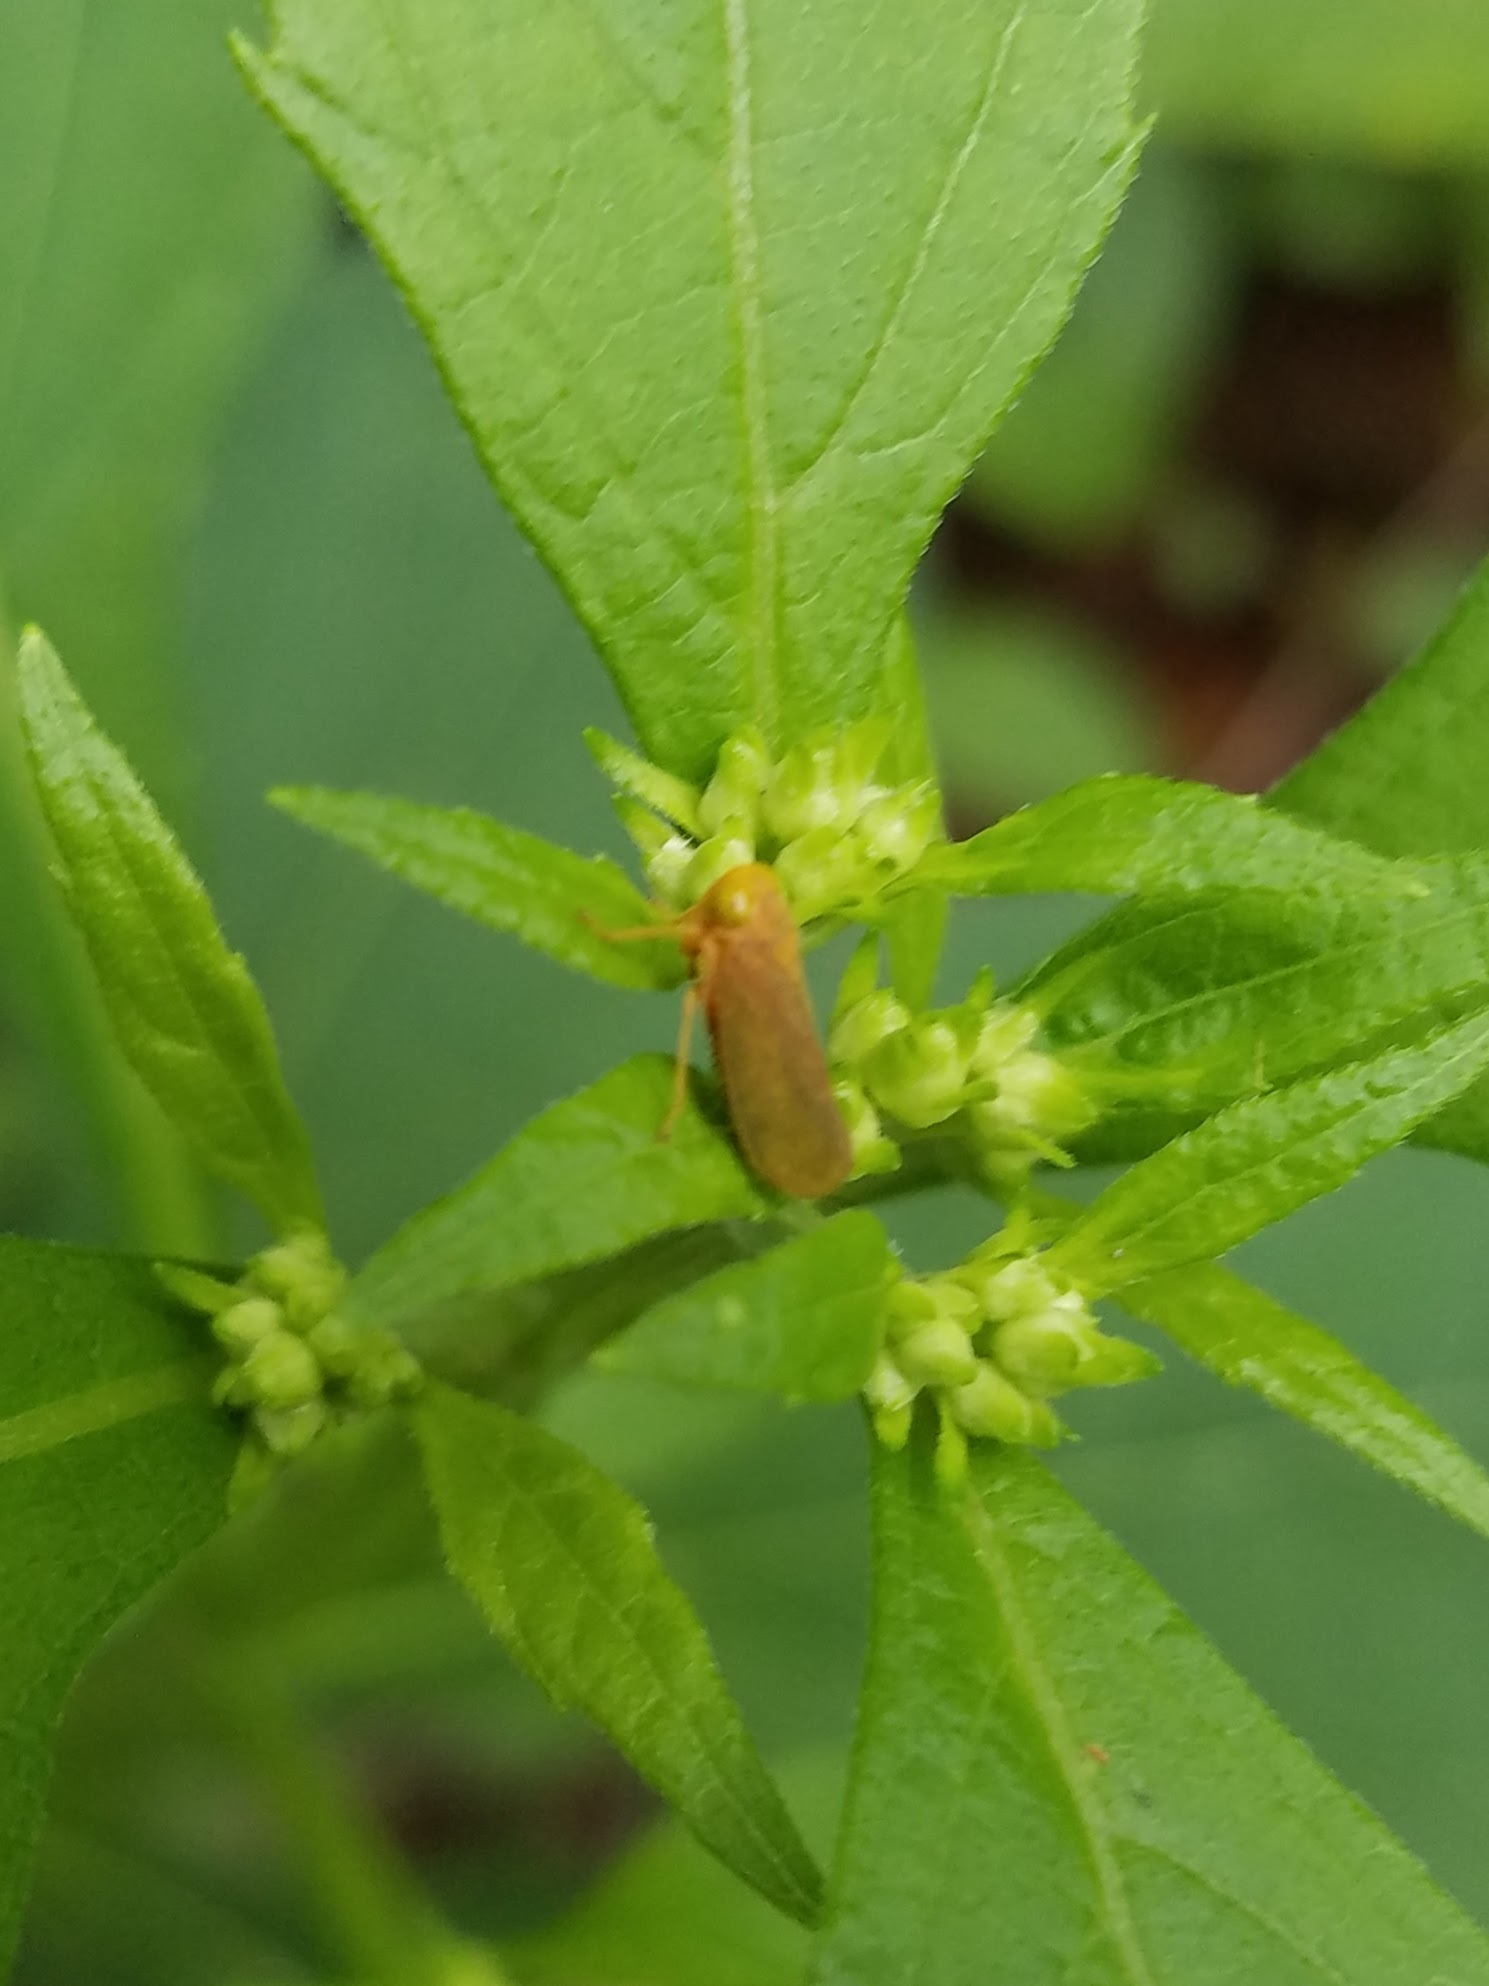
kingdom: Animalia
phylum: Arthropoda
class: Insecta
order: Hemiptera
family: Cicadellidae
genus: Jikradia
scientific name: Jikradia olitoria
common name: Coppery leafhopper
